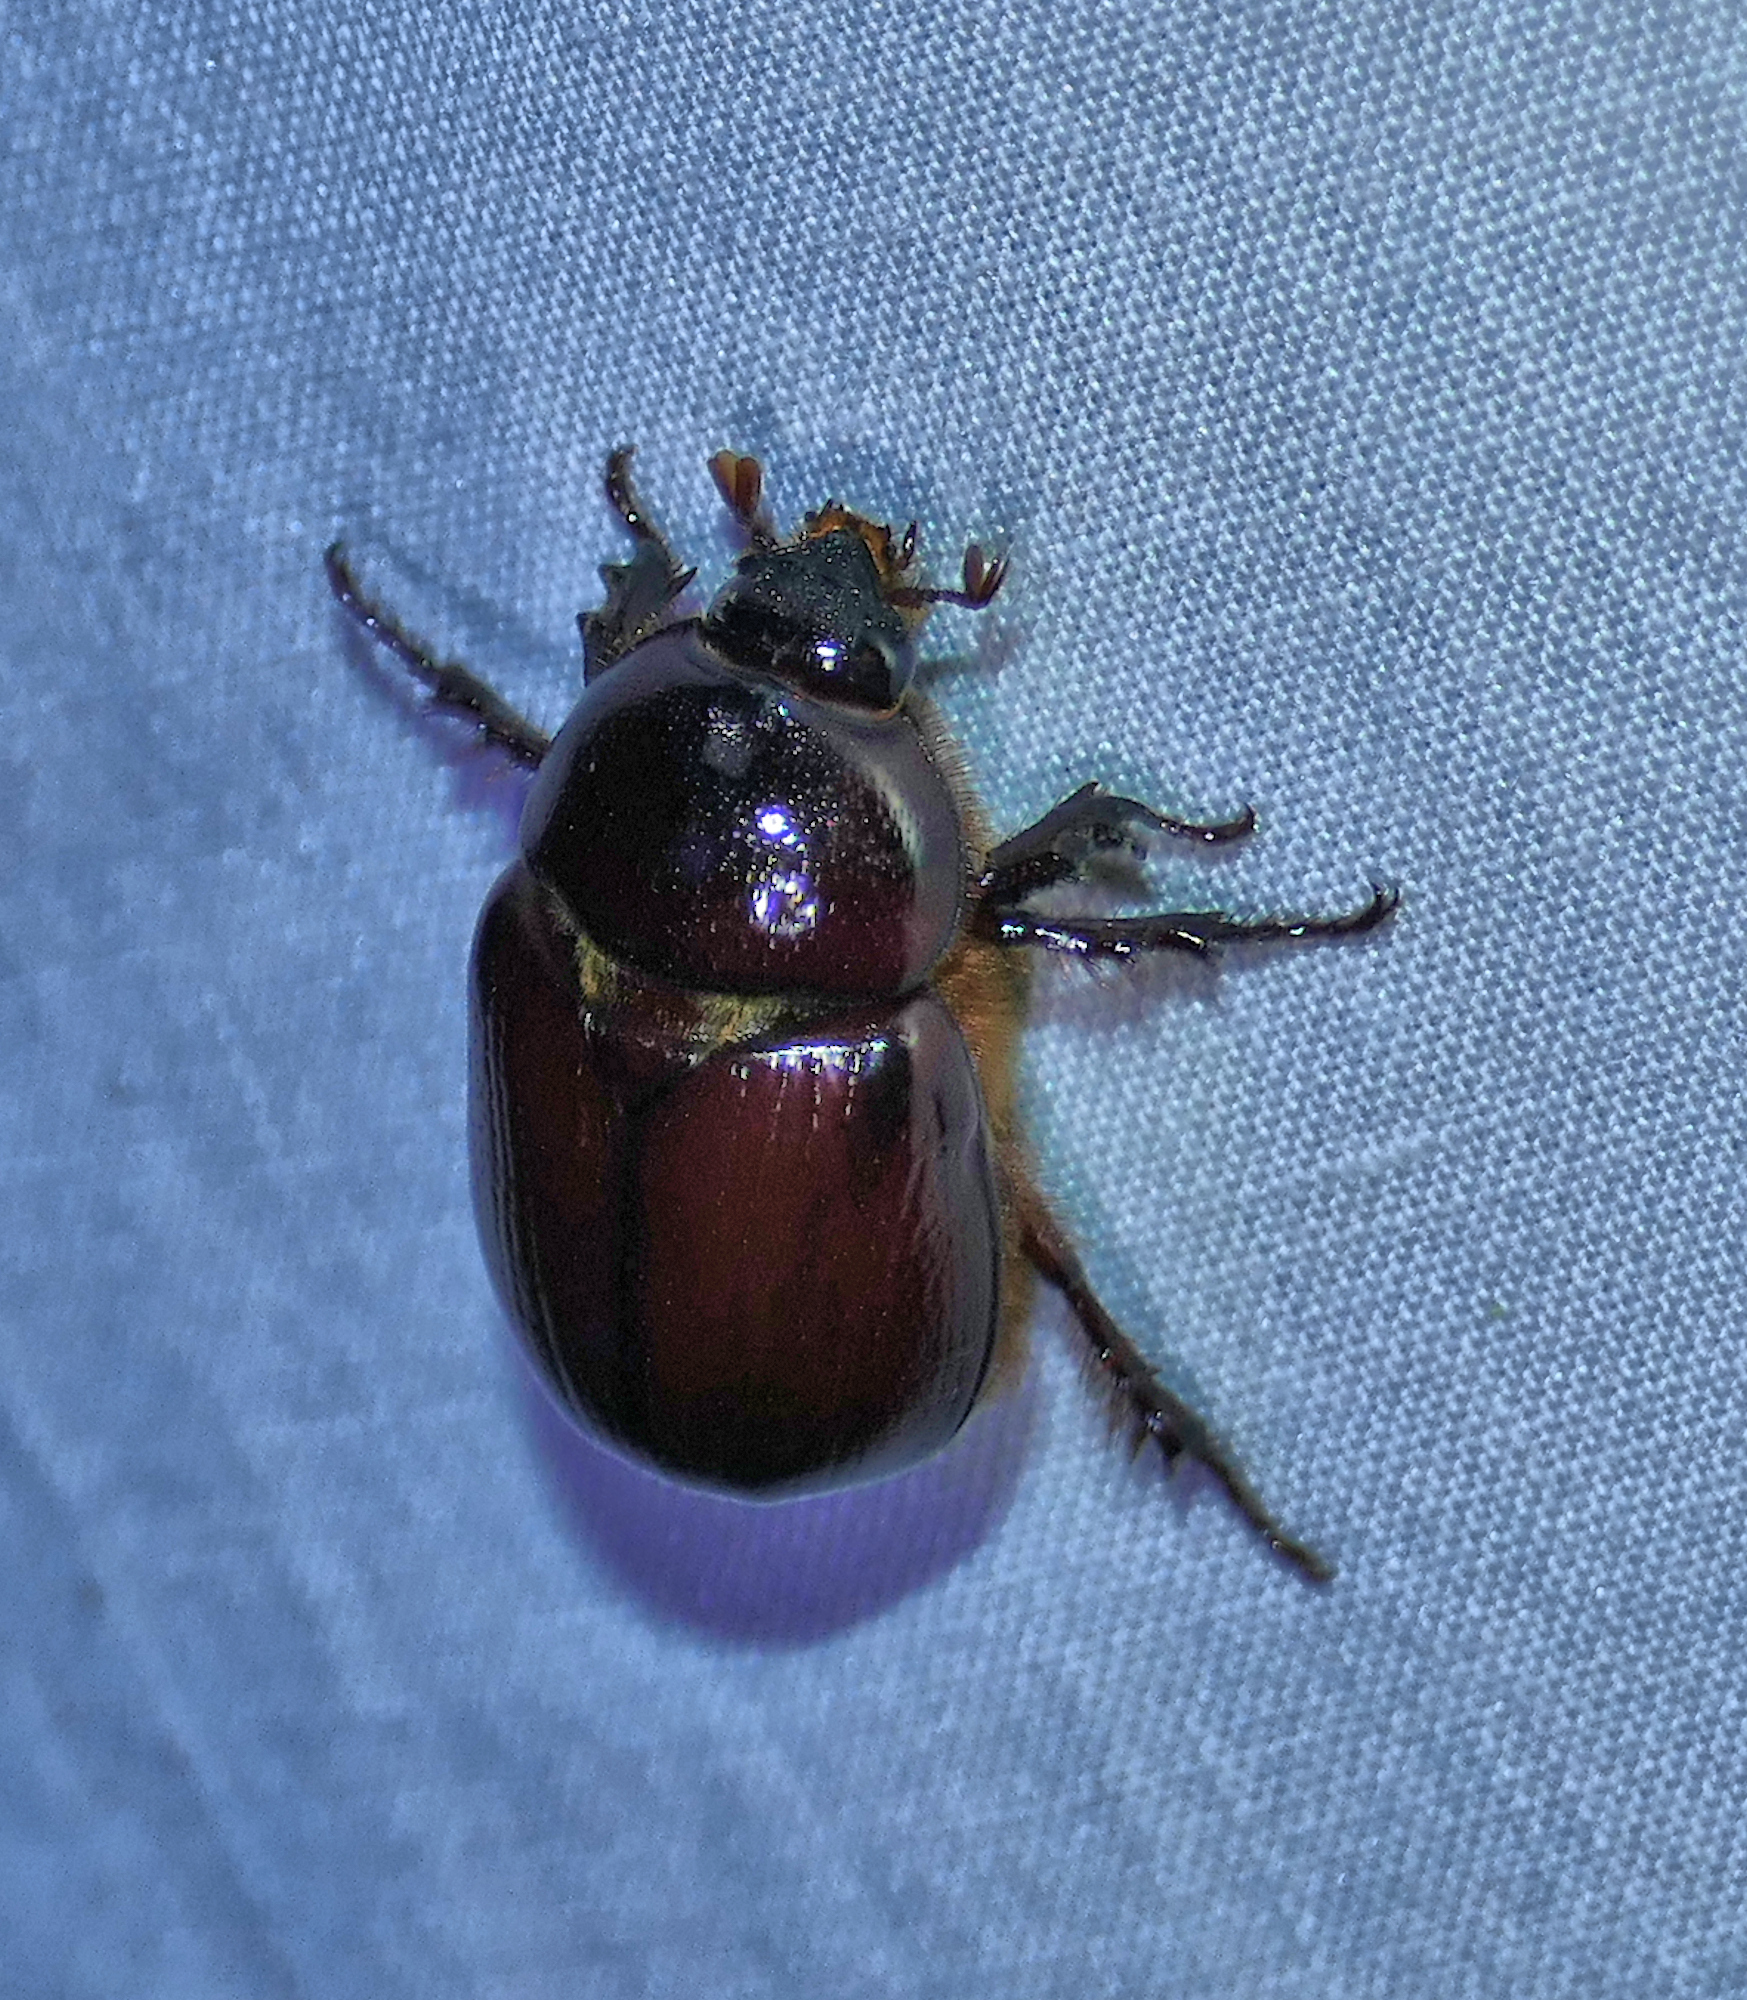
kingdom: Animalia
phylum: Arthropoda
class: Insecta
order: Coleoptera
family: Scarabaeidae
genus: Ligyrus
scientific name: Ligyrus gibbosus
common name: Carrot beetle
